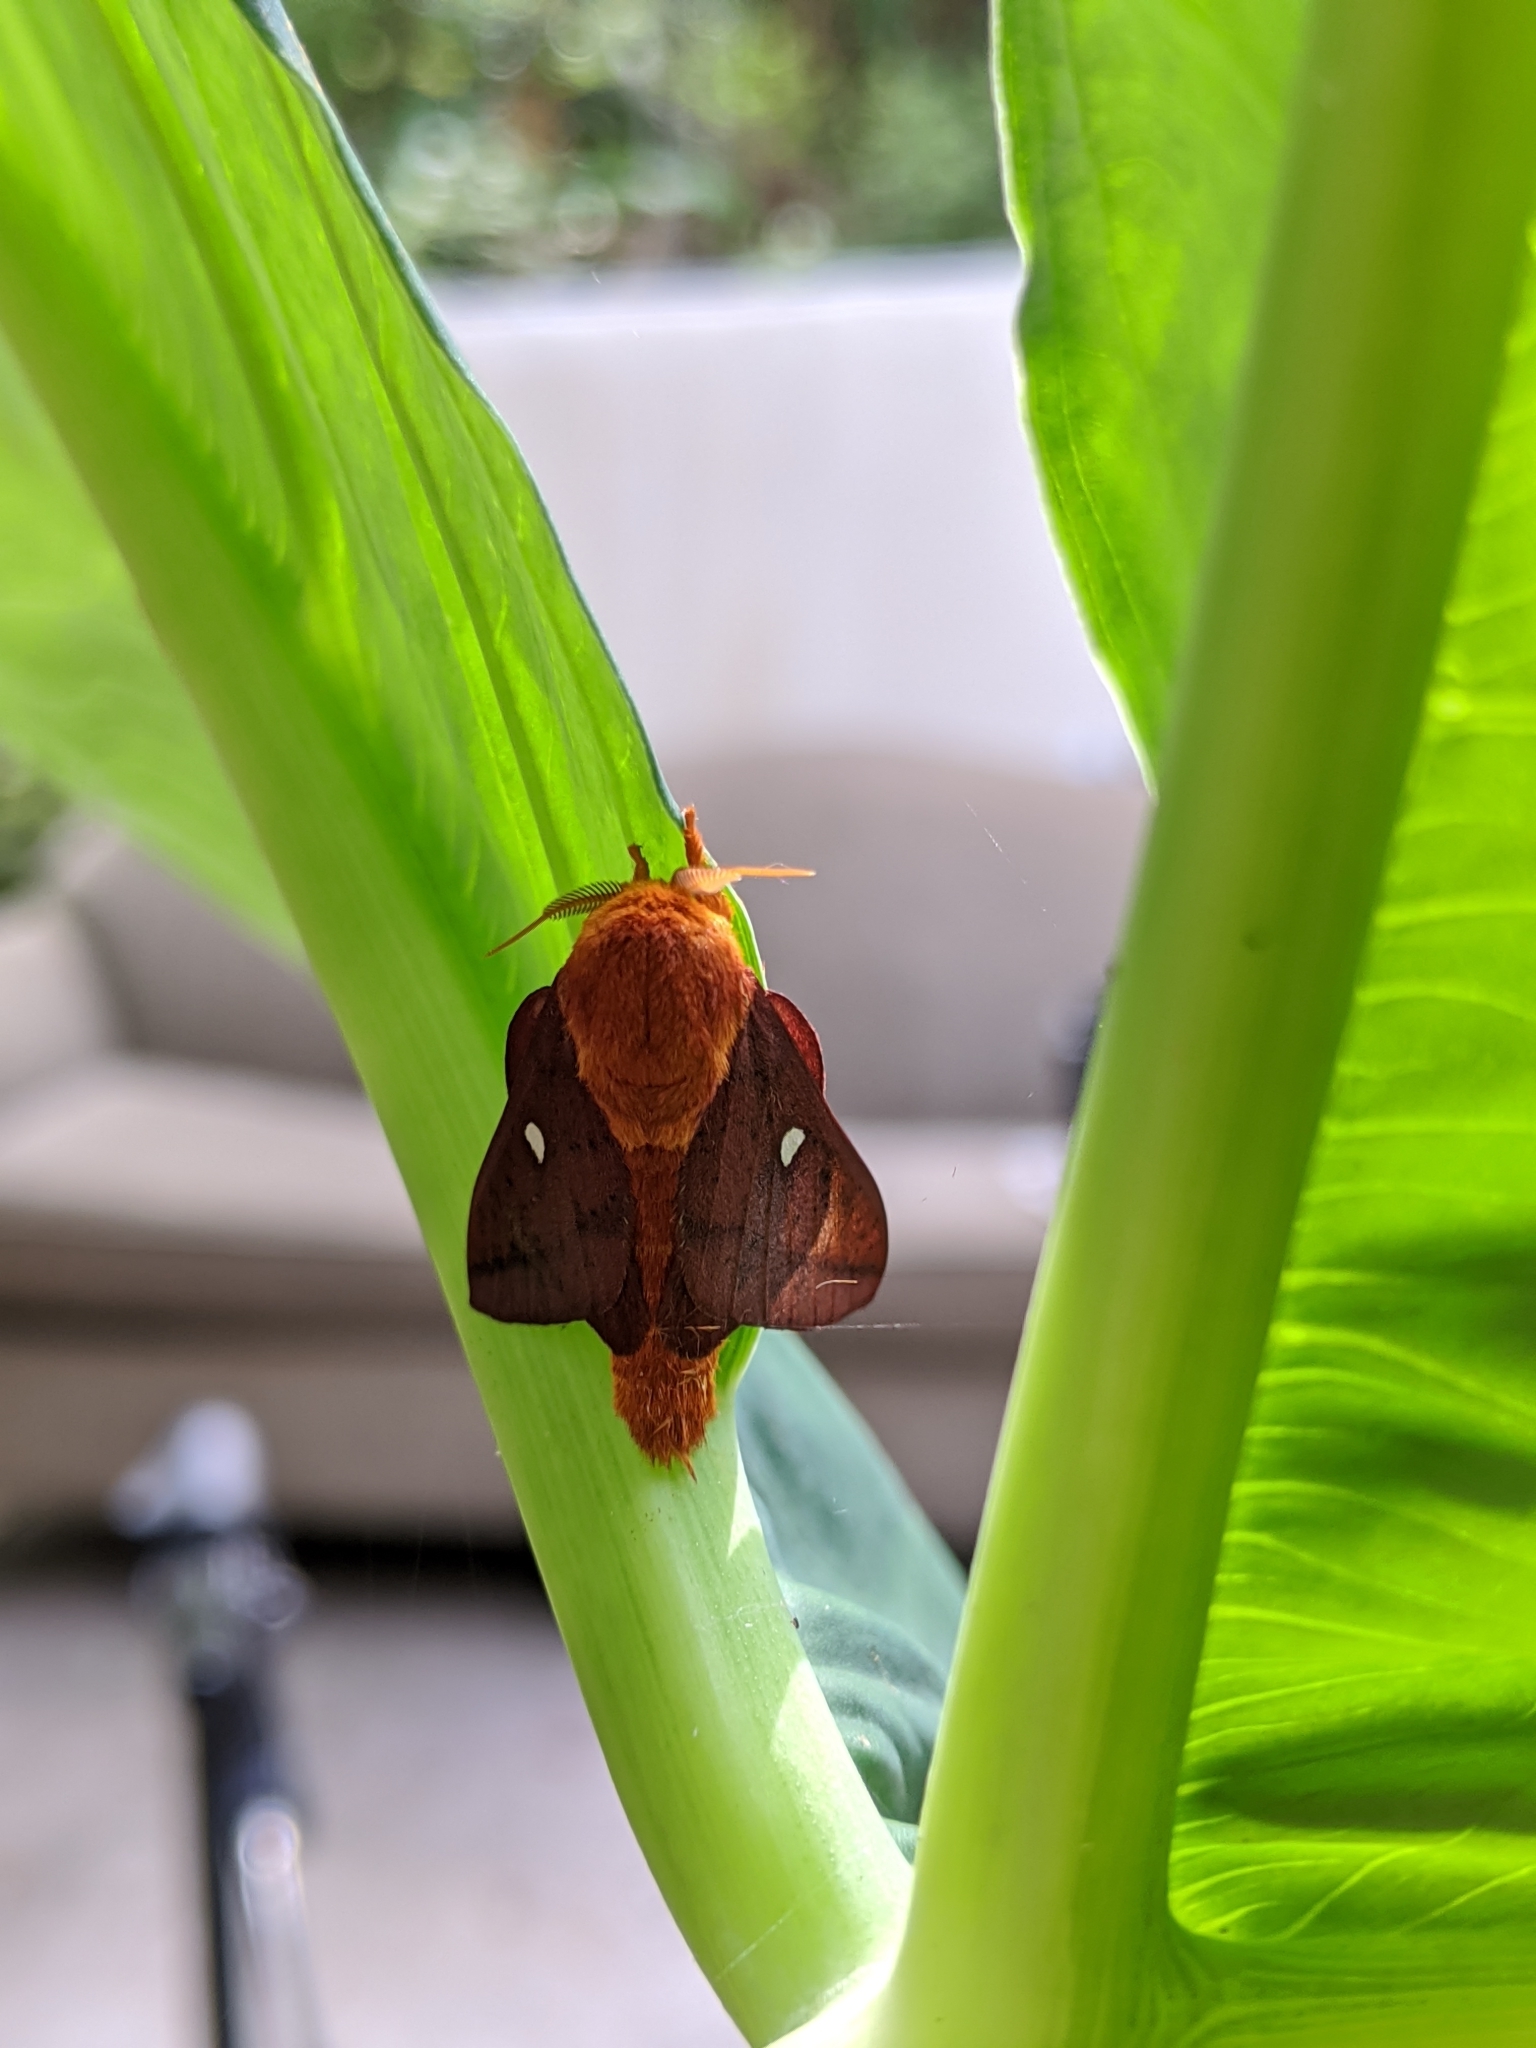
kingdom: Animalia
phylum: Arthropoda
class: Insecta
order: Lepidoptera
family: Saturniidae
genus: Anisota
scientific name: Anisota virginiensis
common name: Pink striped oakworm moth
